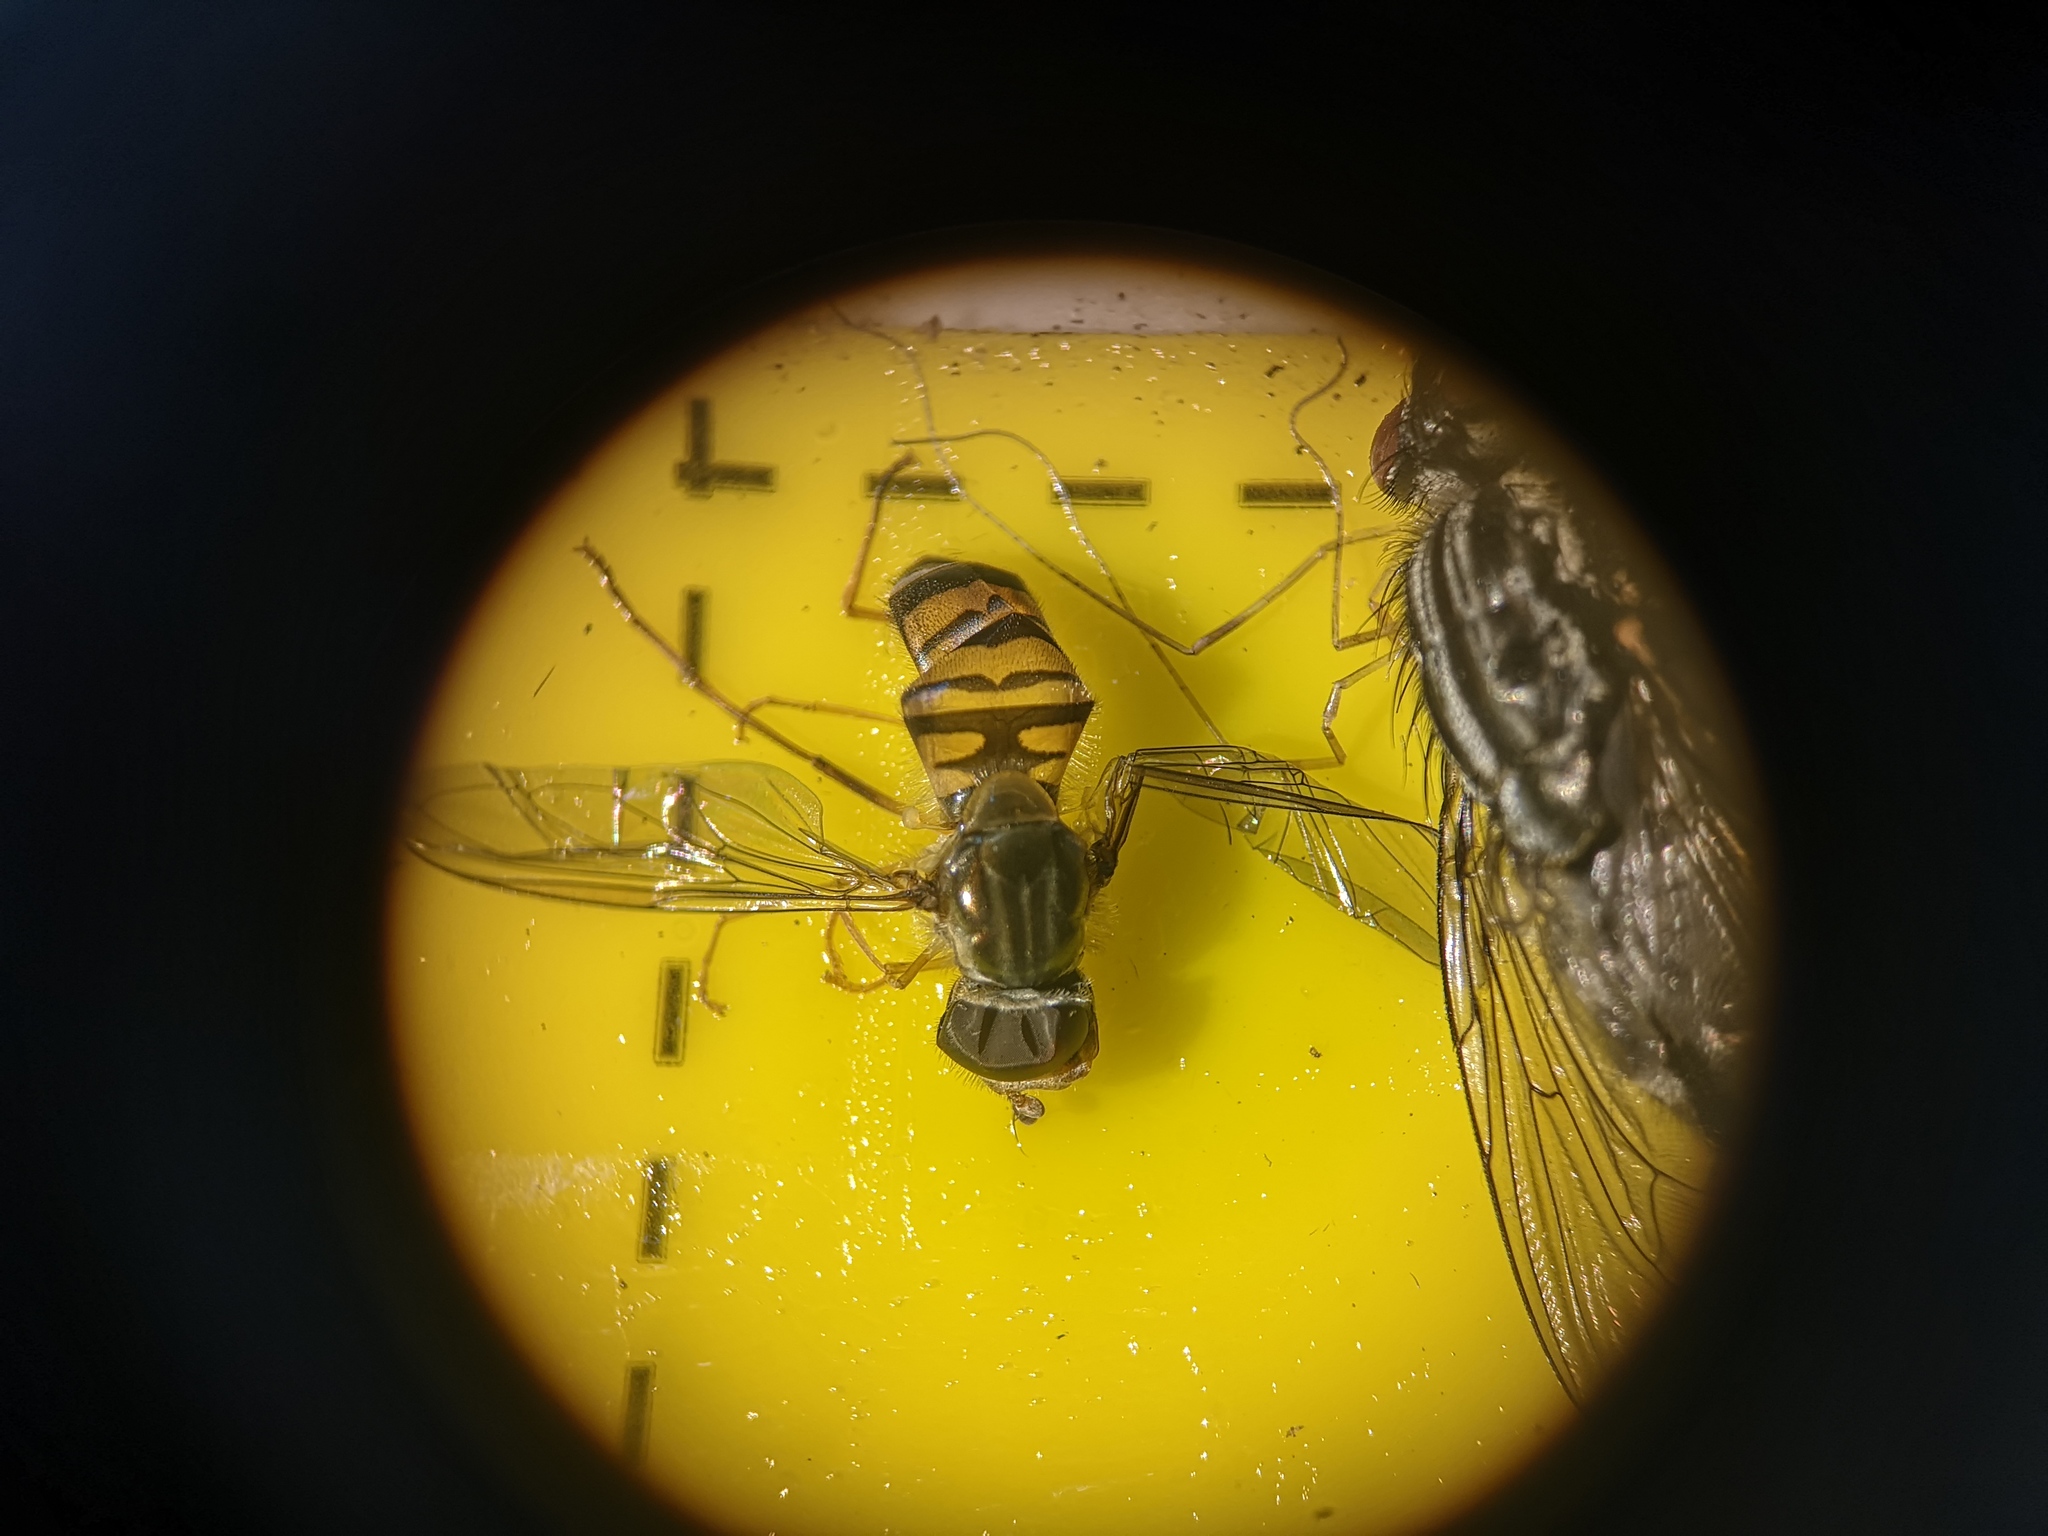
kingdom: Animalia
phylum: Arthropoda
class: Insecta
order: Diptera
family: Syrphidae
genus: Episyrphus
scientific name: Episyrphus balteatus
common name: Marmalade hoverfly
